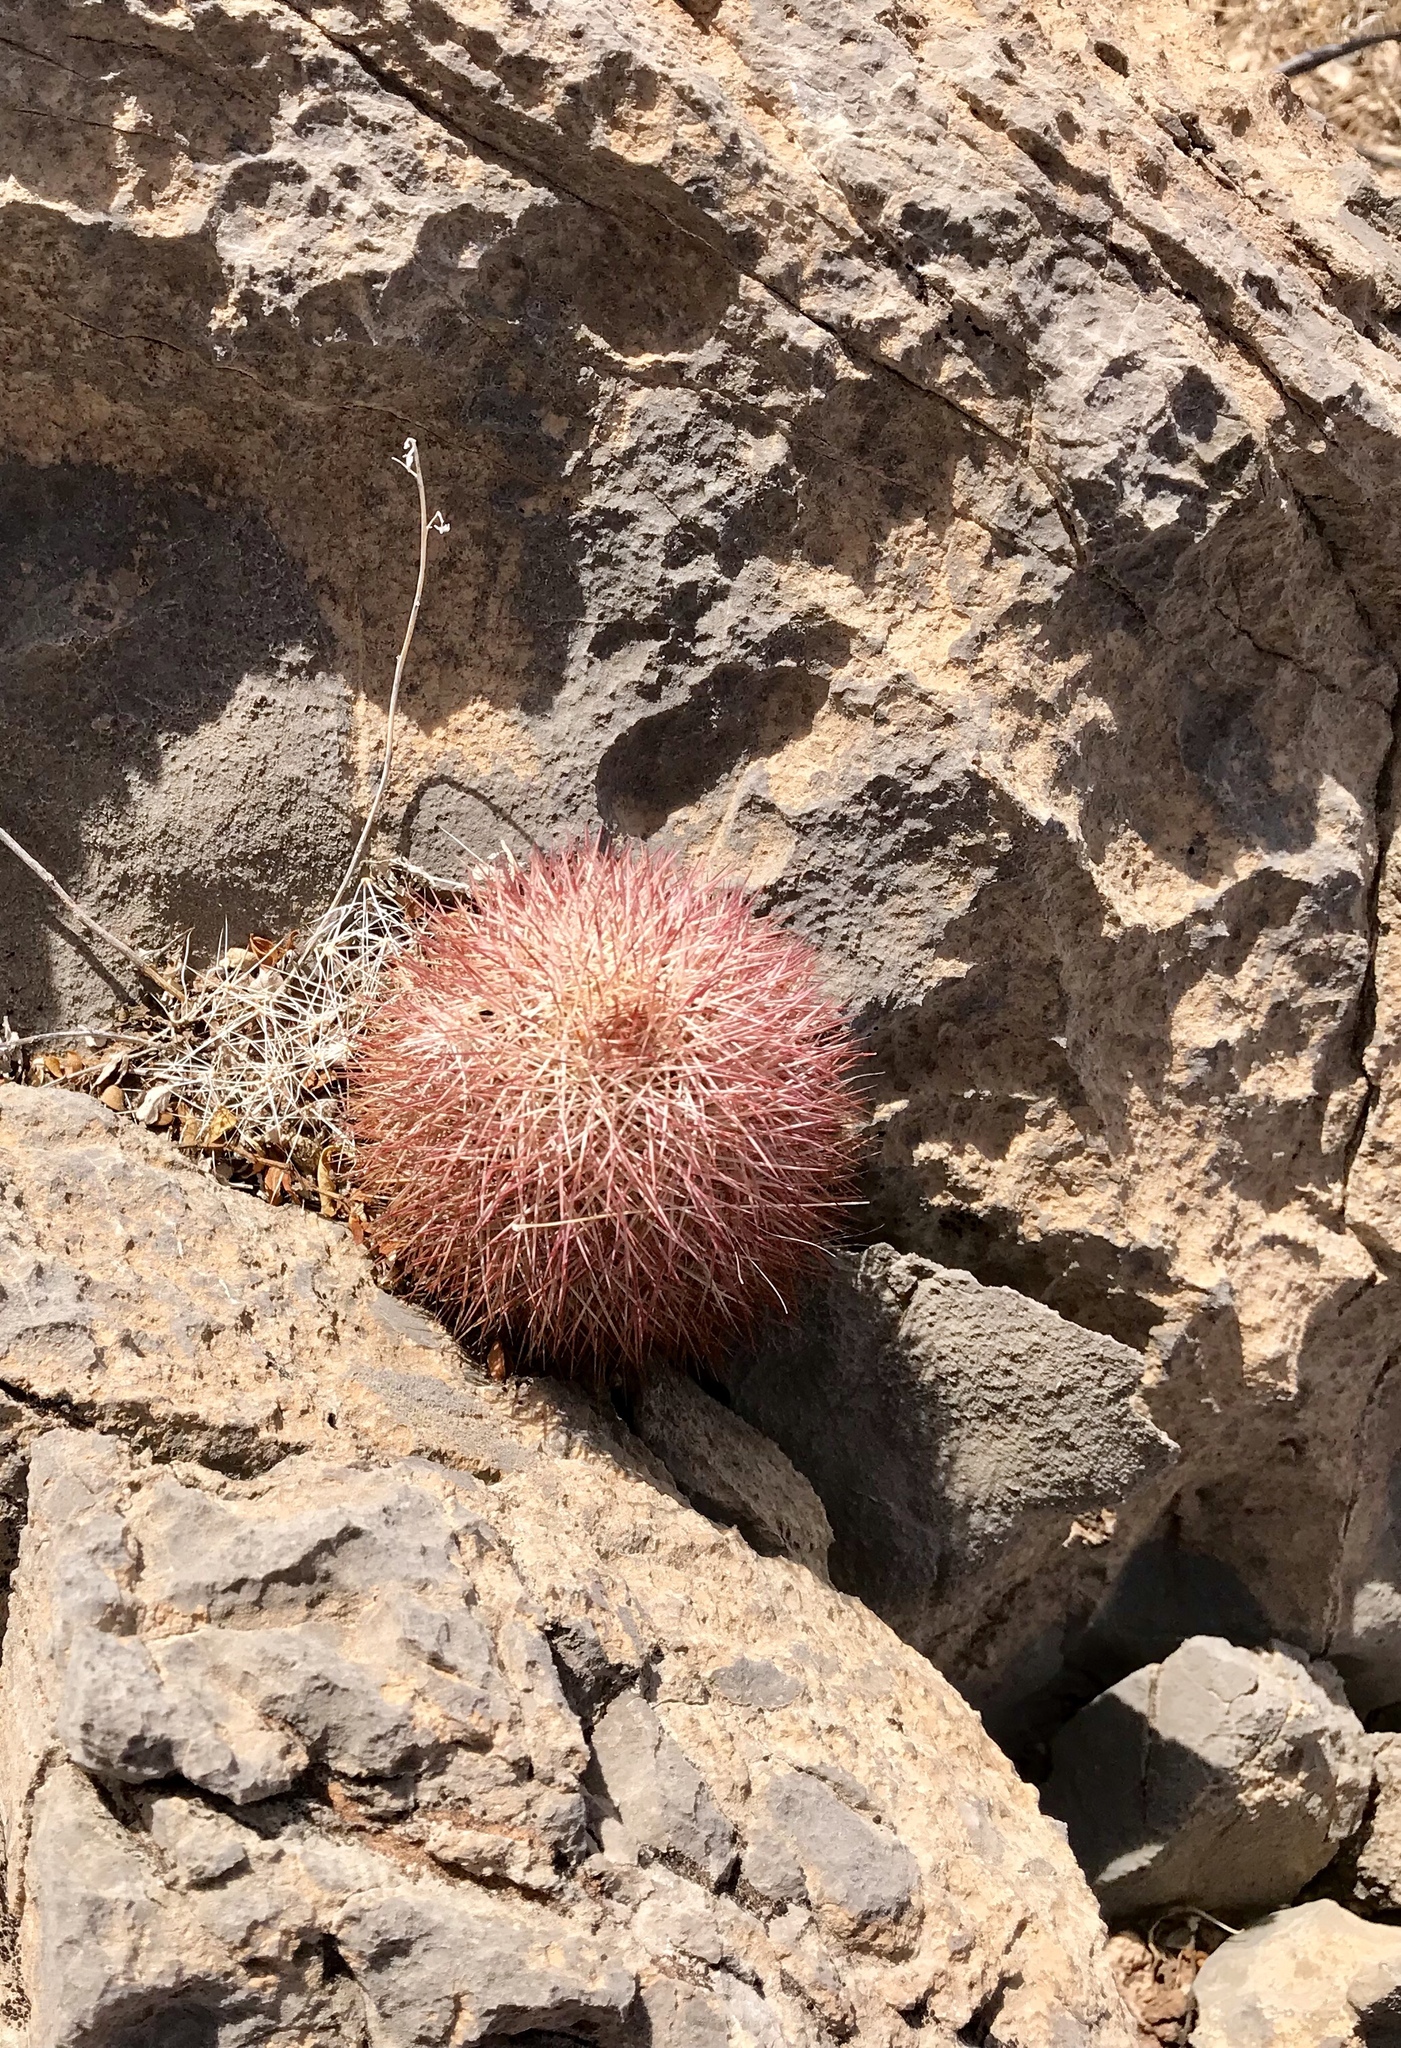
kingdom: Plantae
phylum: Tracheophyta
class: Magnoliopsida
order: Caryophyllales
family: Cactaceae
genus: Echinocereus
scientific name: Echinocereus dasyacanthus
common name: Spiny hedgehog cactus
